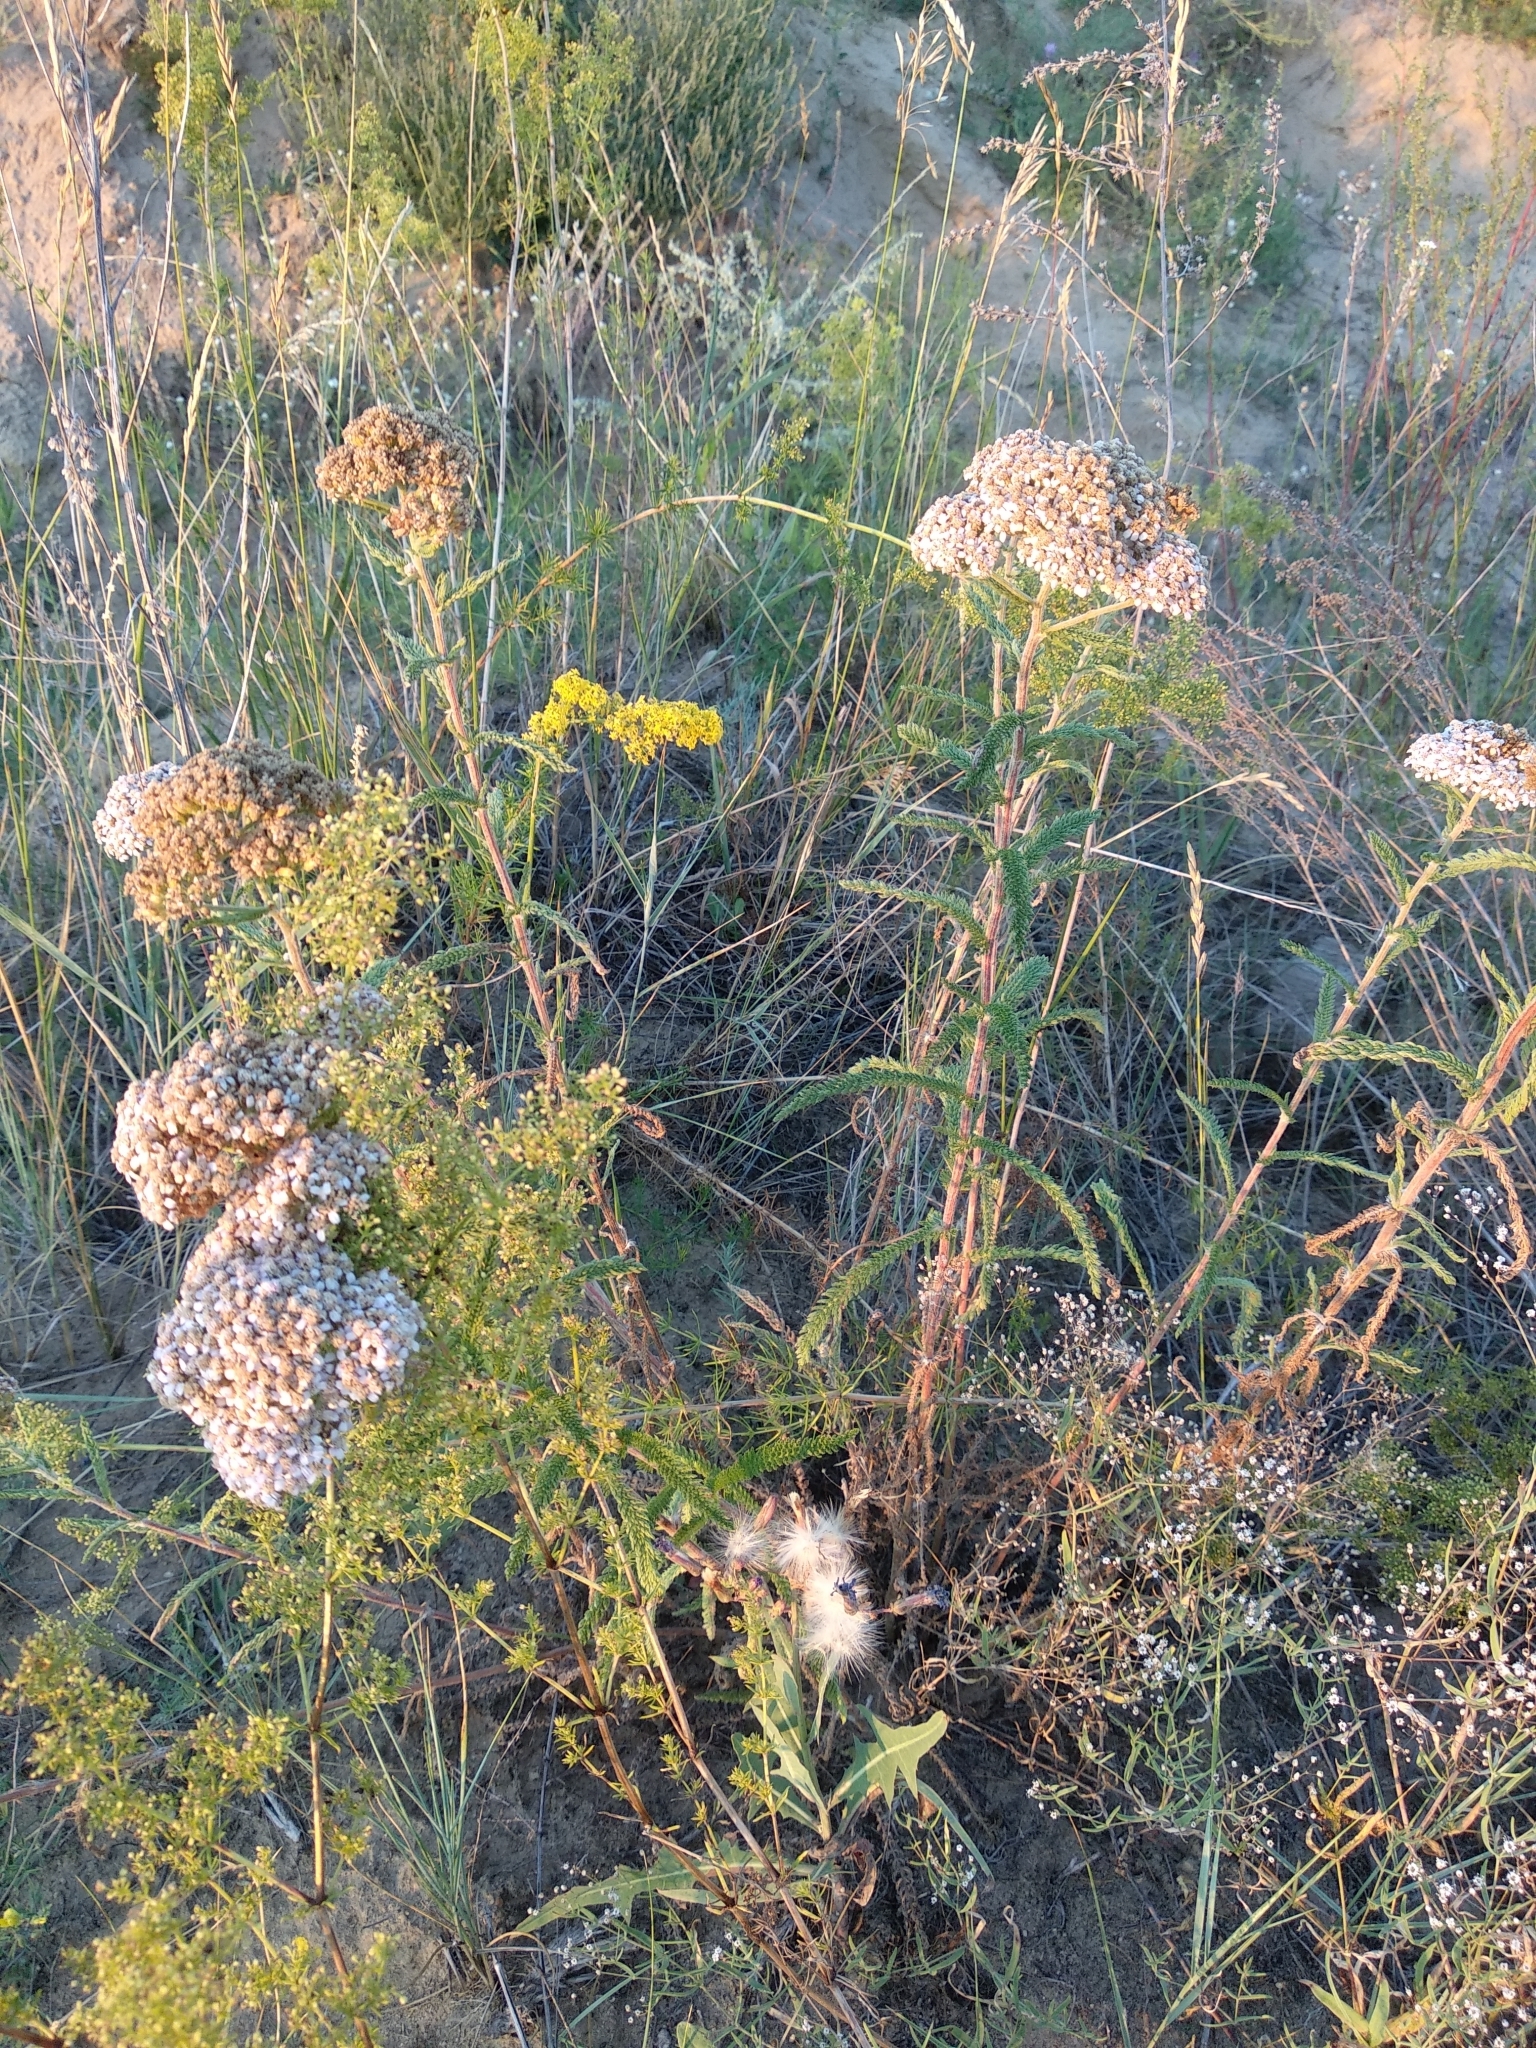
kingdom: Plantae
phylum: Tracheophyta
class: Magnoliopsida
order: Asterales
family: Asteraceae
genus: Achillea
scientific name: Achillea millefolium
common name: Yarrow
